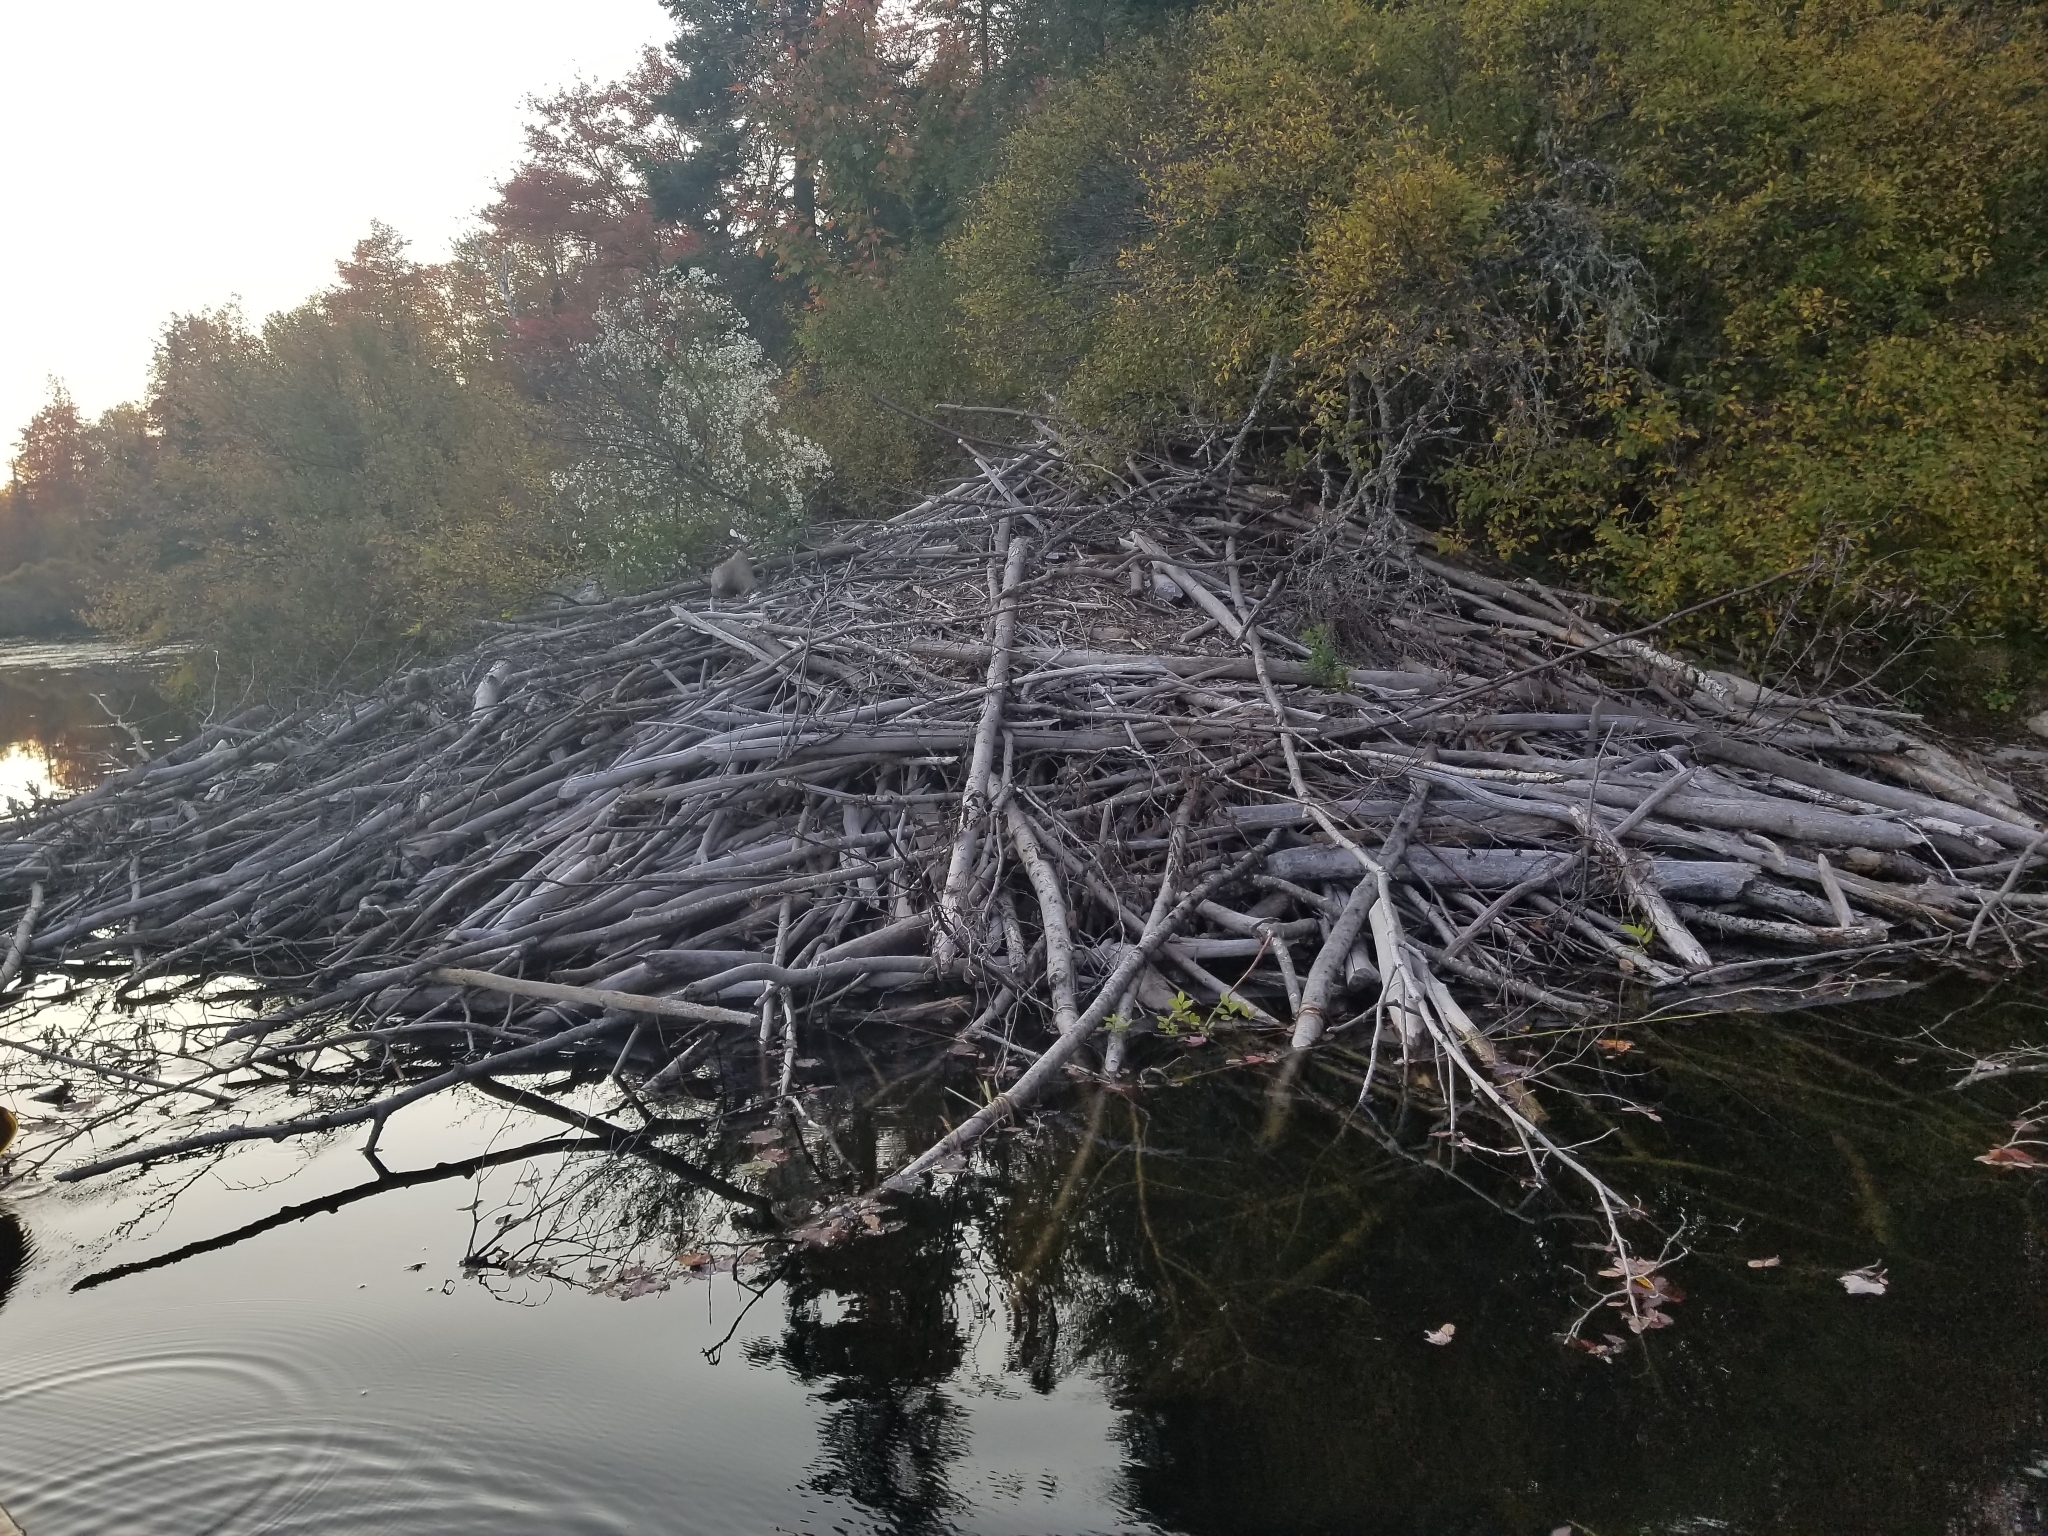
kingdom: Animalia
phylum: Chordata
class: Mammalia
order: Rodentia
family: Castoridae
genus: Castor
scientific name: Castor canadensis
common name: American beaver
